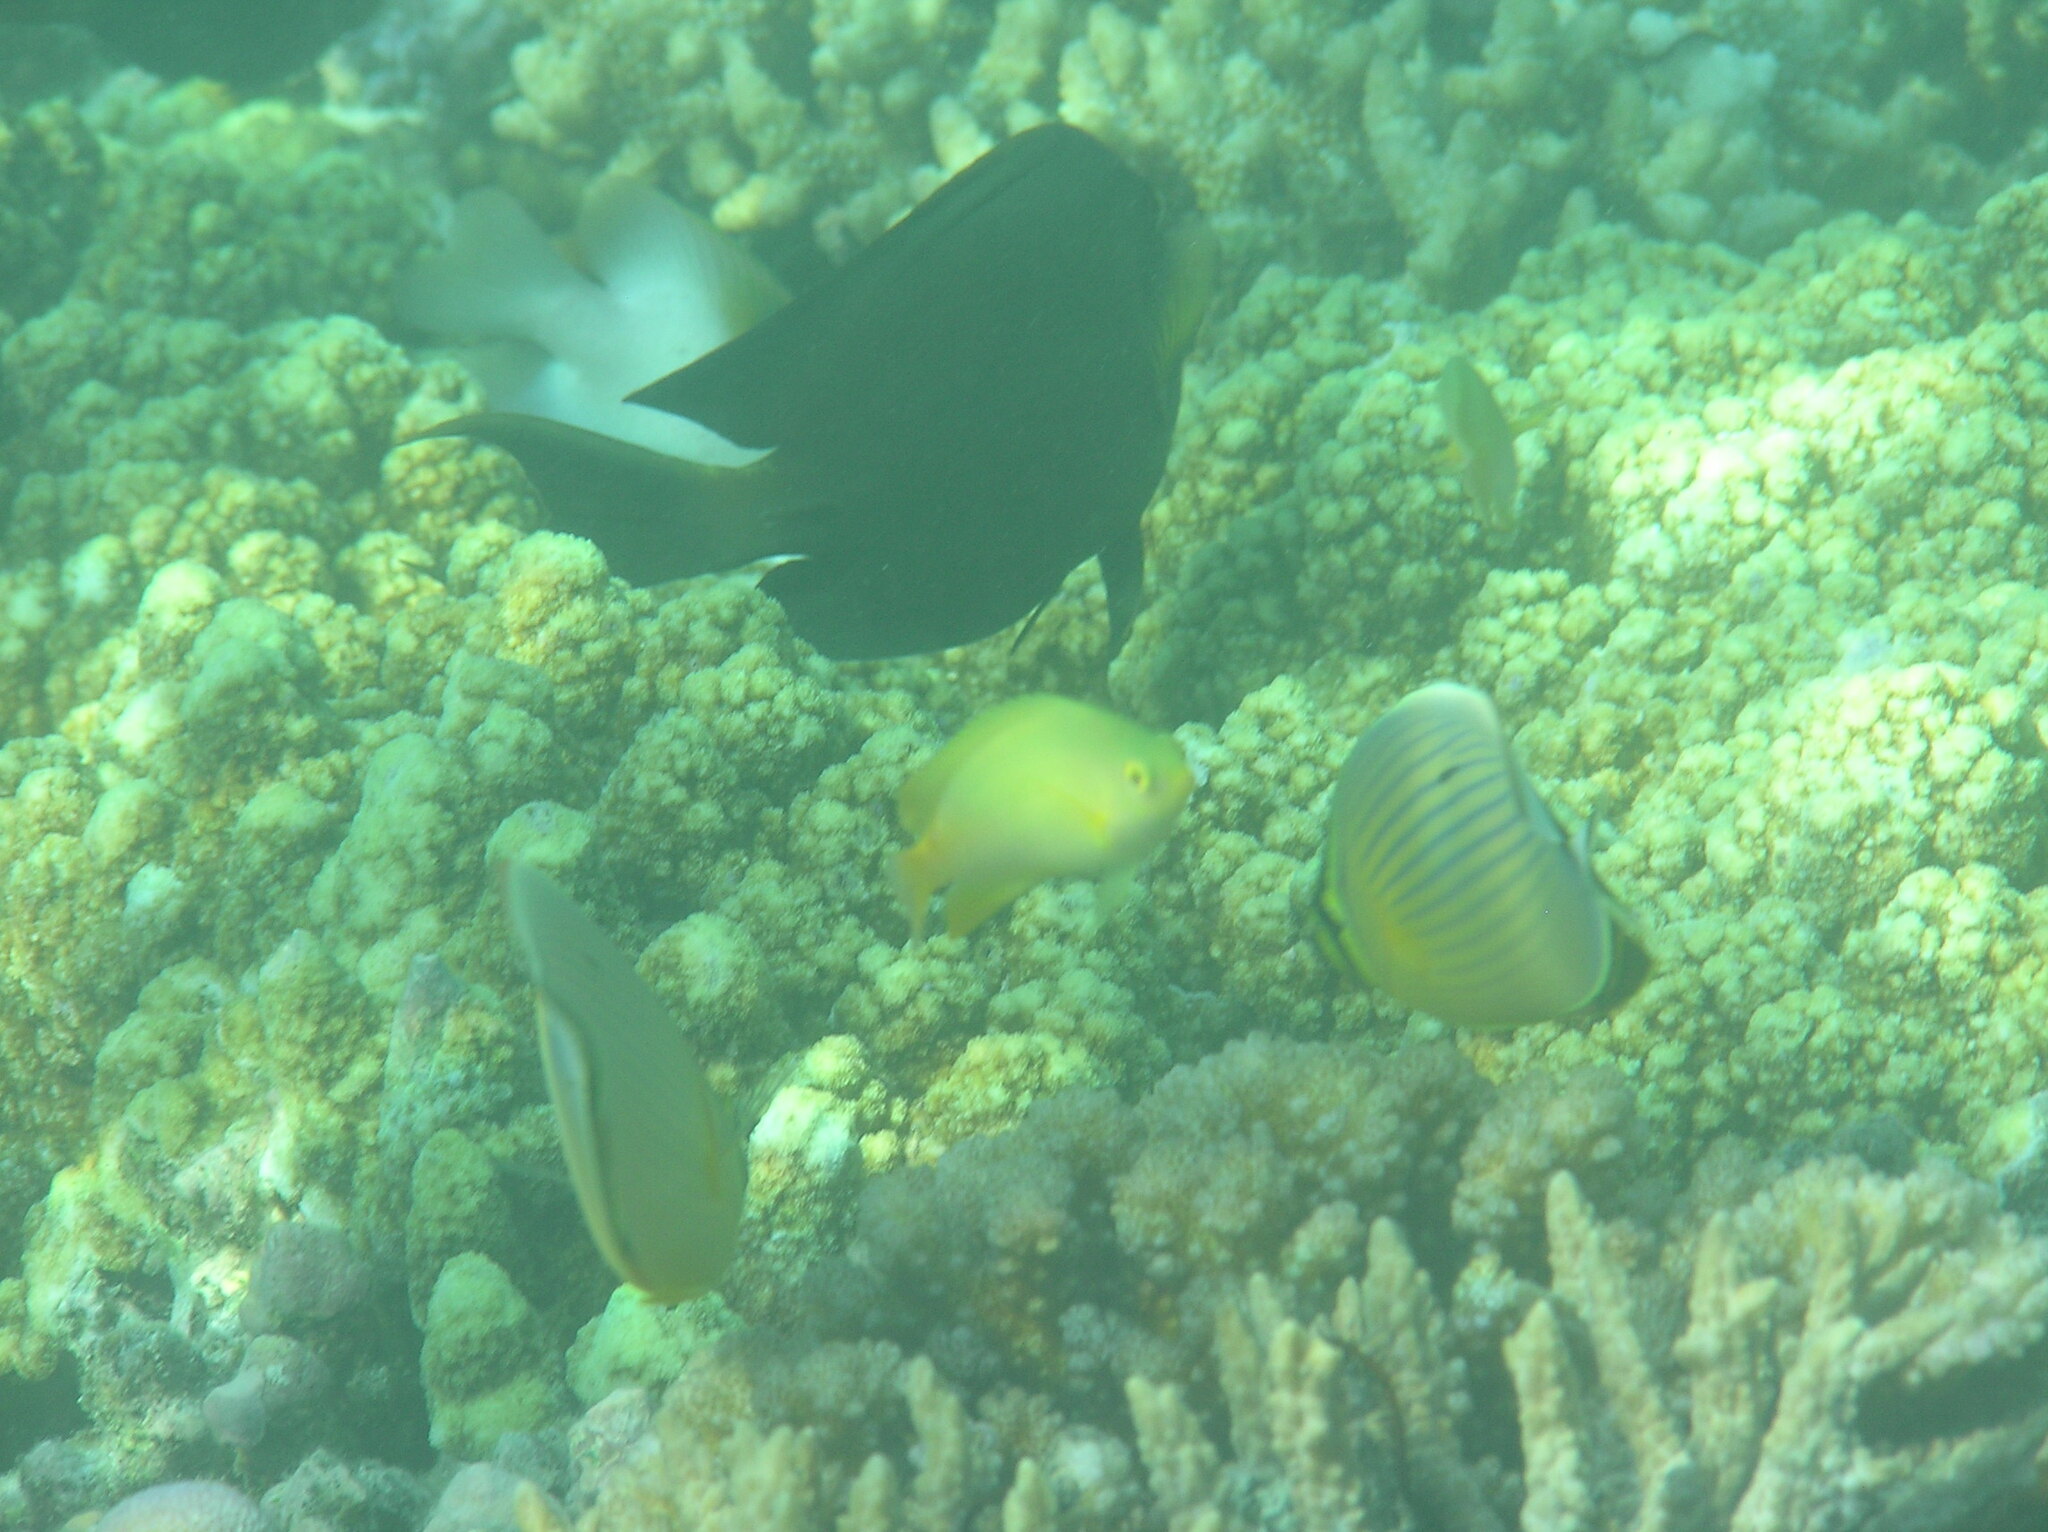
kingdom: Animalia
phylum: Chordata
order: Perciformes
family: Chaetodontidae
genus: Chaetodon
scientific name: Chaetodon lunulatus
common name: Redfin butterflyfish
